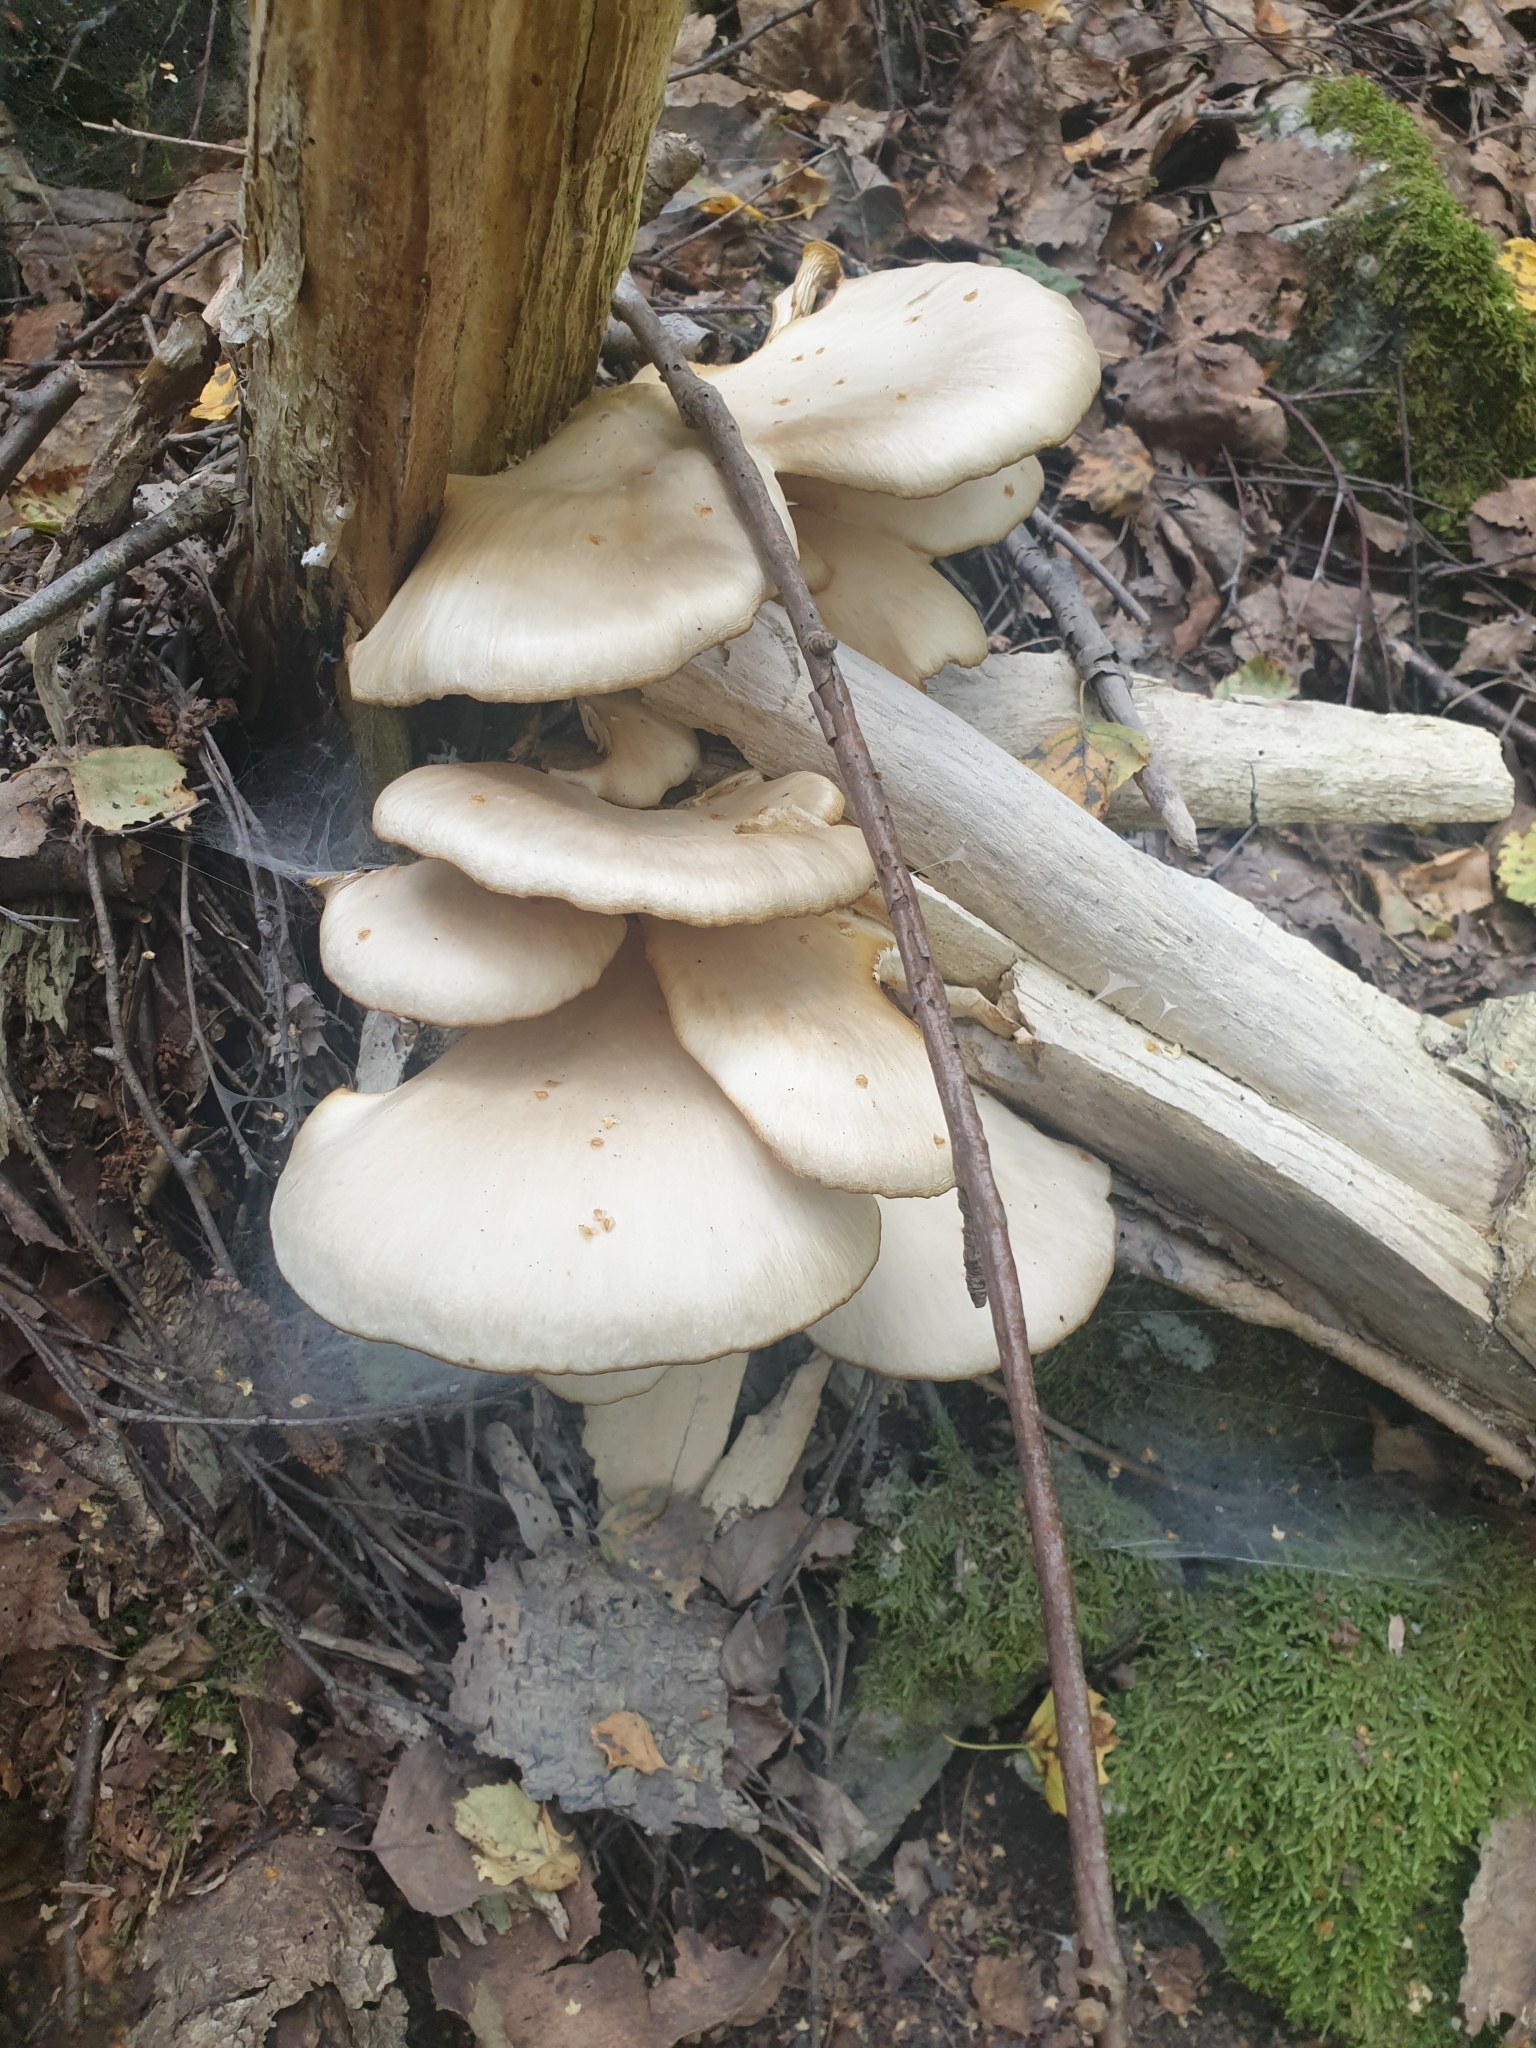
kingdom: Fungi
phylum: Basidiomycota
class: Agaricomycetes
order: Agaricales
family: Pleurotaceae
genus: Pleurotus
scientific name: Pleurotus pulmonarius
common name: Pale oyster
